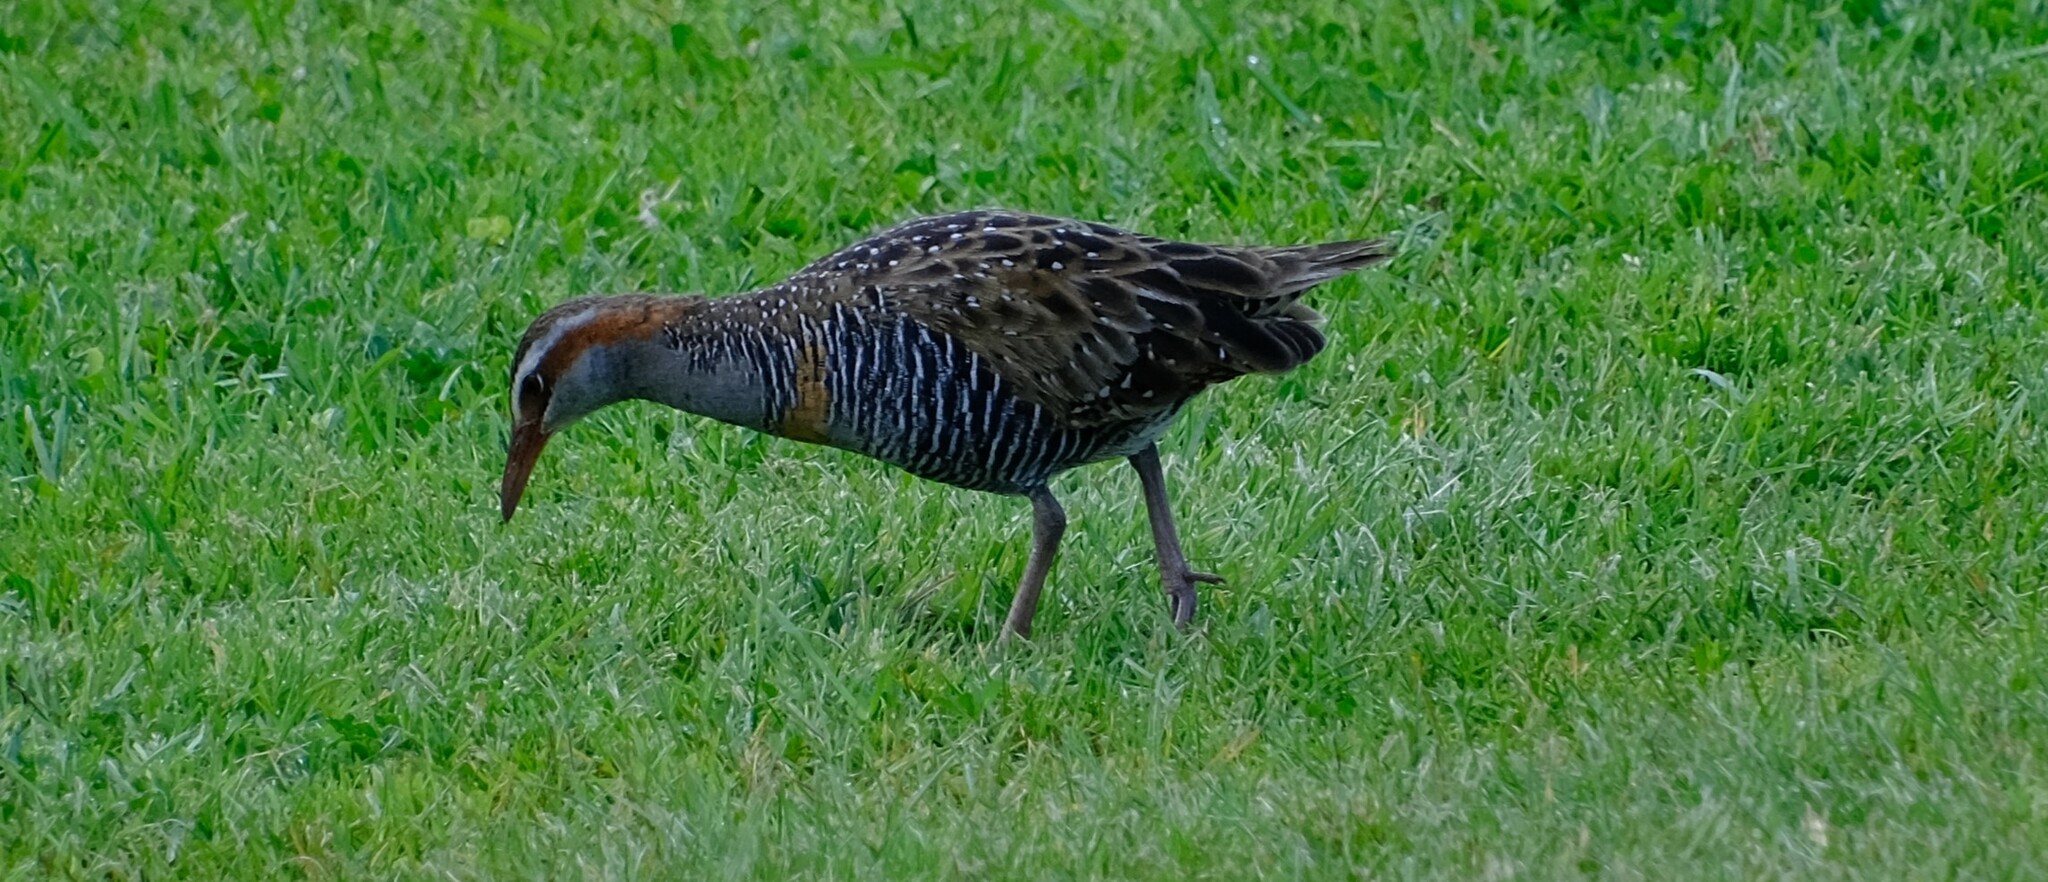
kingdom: Animalia
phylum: Chordata
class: Aves
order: Gruiformes
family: Rallidae
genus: Gallirallus
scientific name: Gallirallus philippensis
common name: Buff-banded rail
